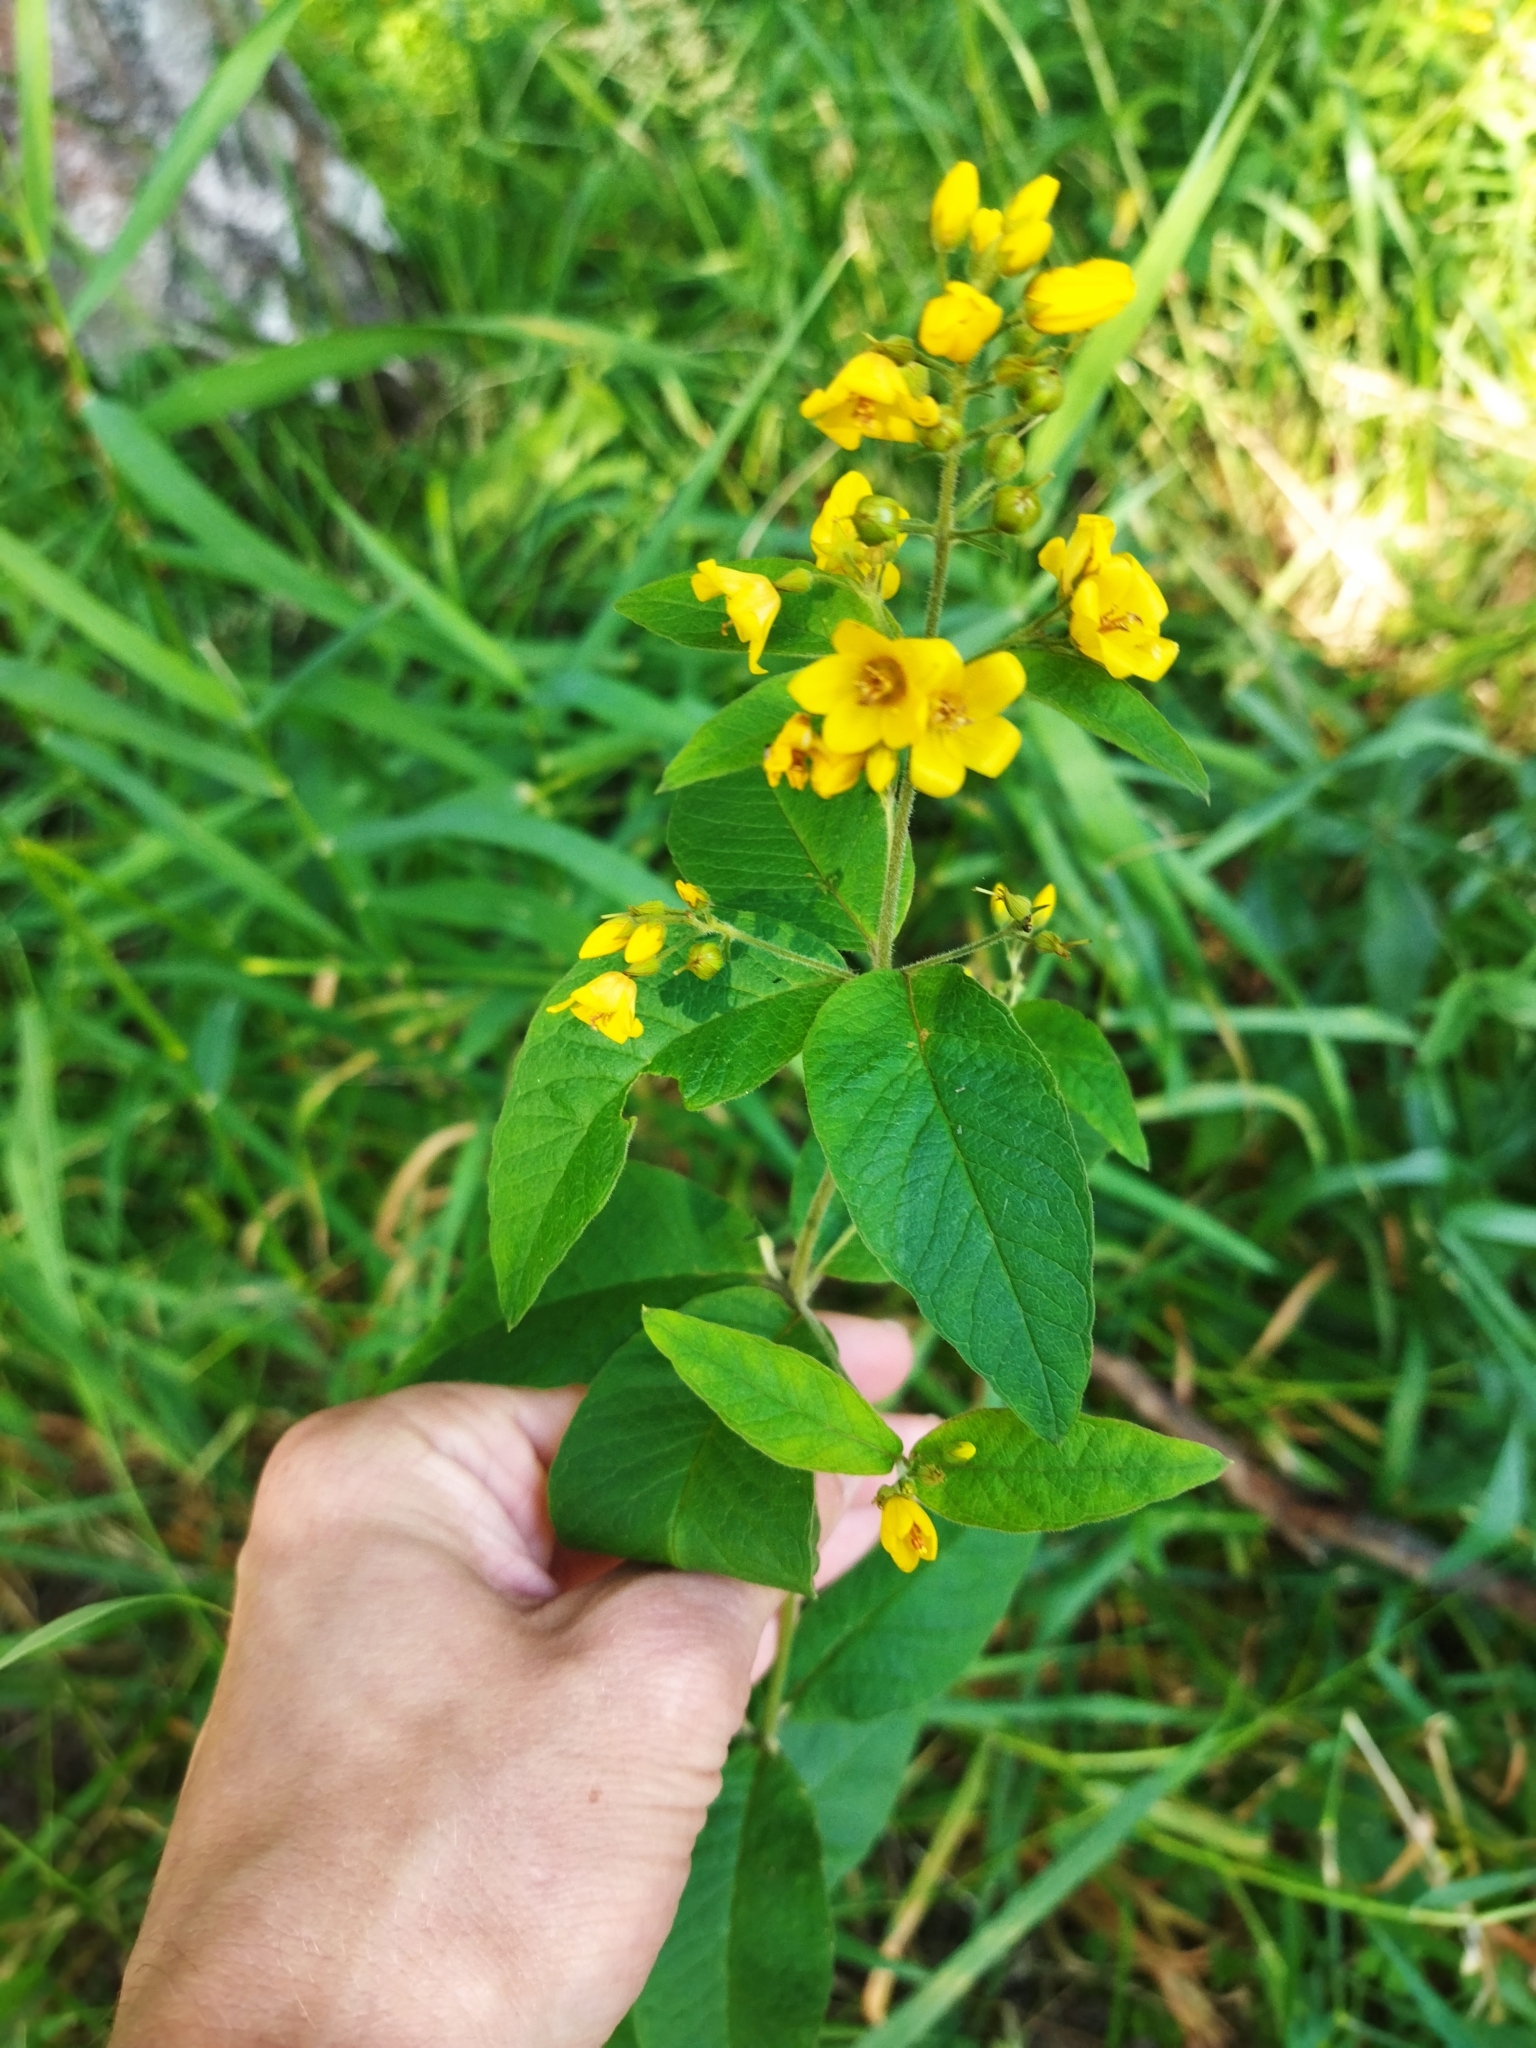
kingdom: Plantae
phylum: Tracheophyta
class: Magnoliopsida
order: Ericales
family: Primulaceae
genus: Lysimachia
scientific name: Lysimachia vulgaris
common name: Yellow loosestrife
